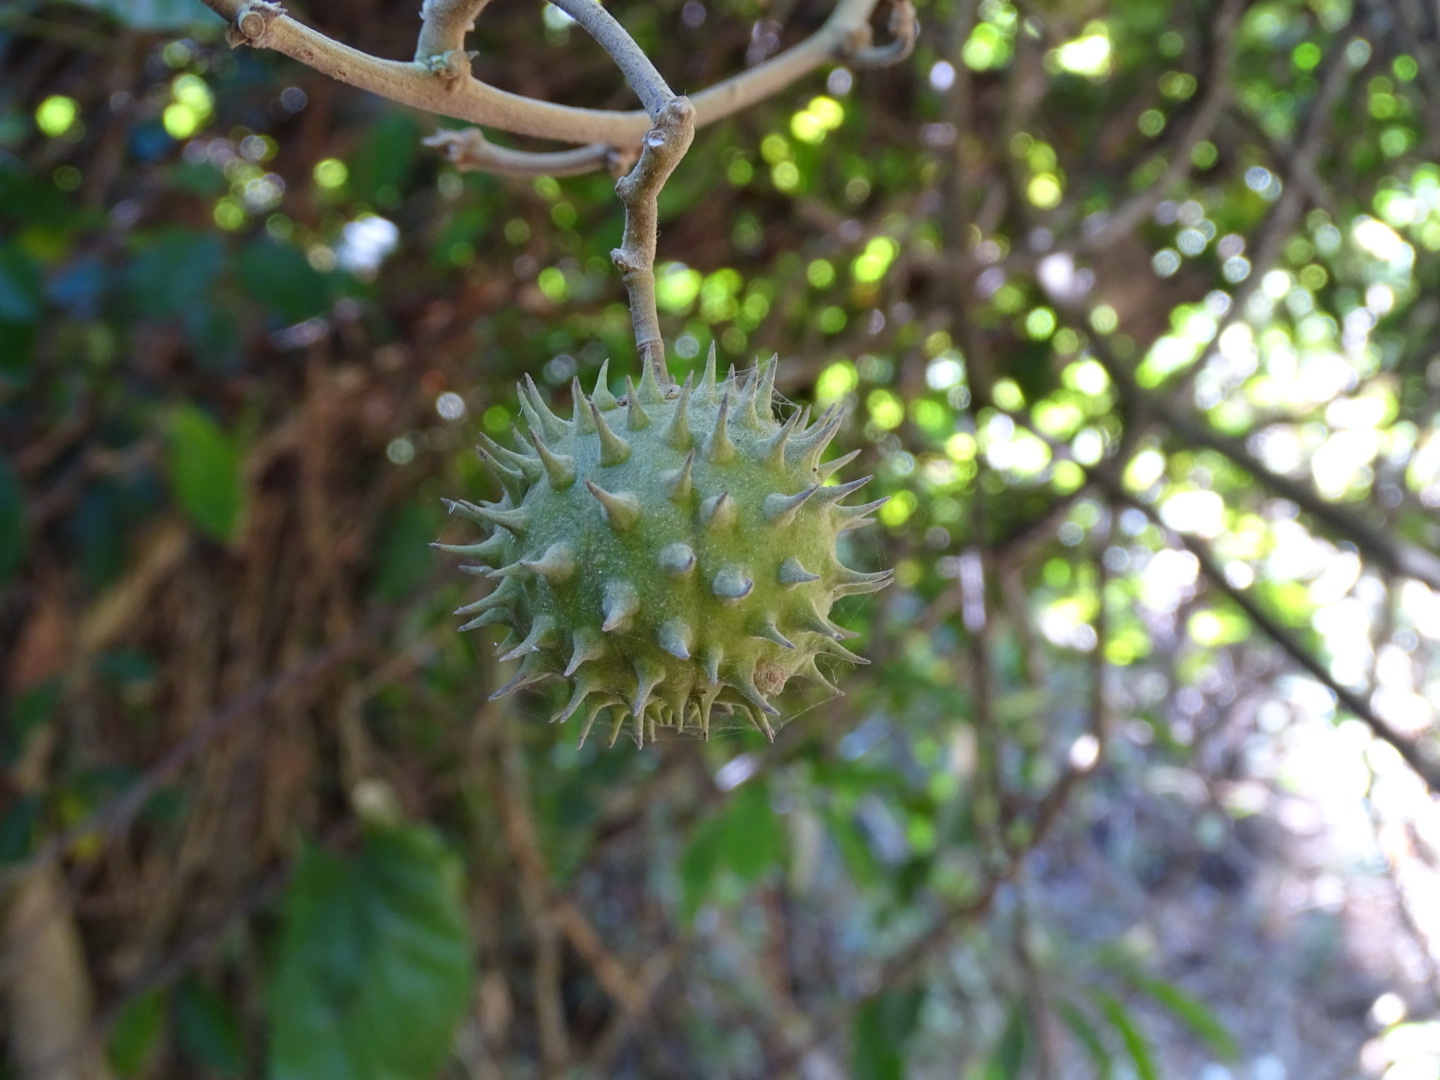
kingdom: Plantae
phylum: Tracheophyta
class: Magnoliopsida
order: Malvales
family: Malvaceae
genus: Byttneria
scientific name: Byttneria grandifolia
